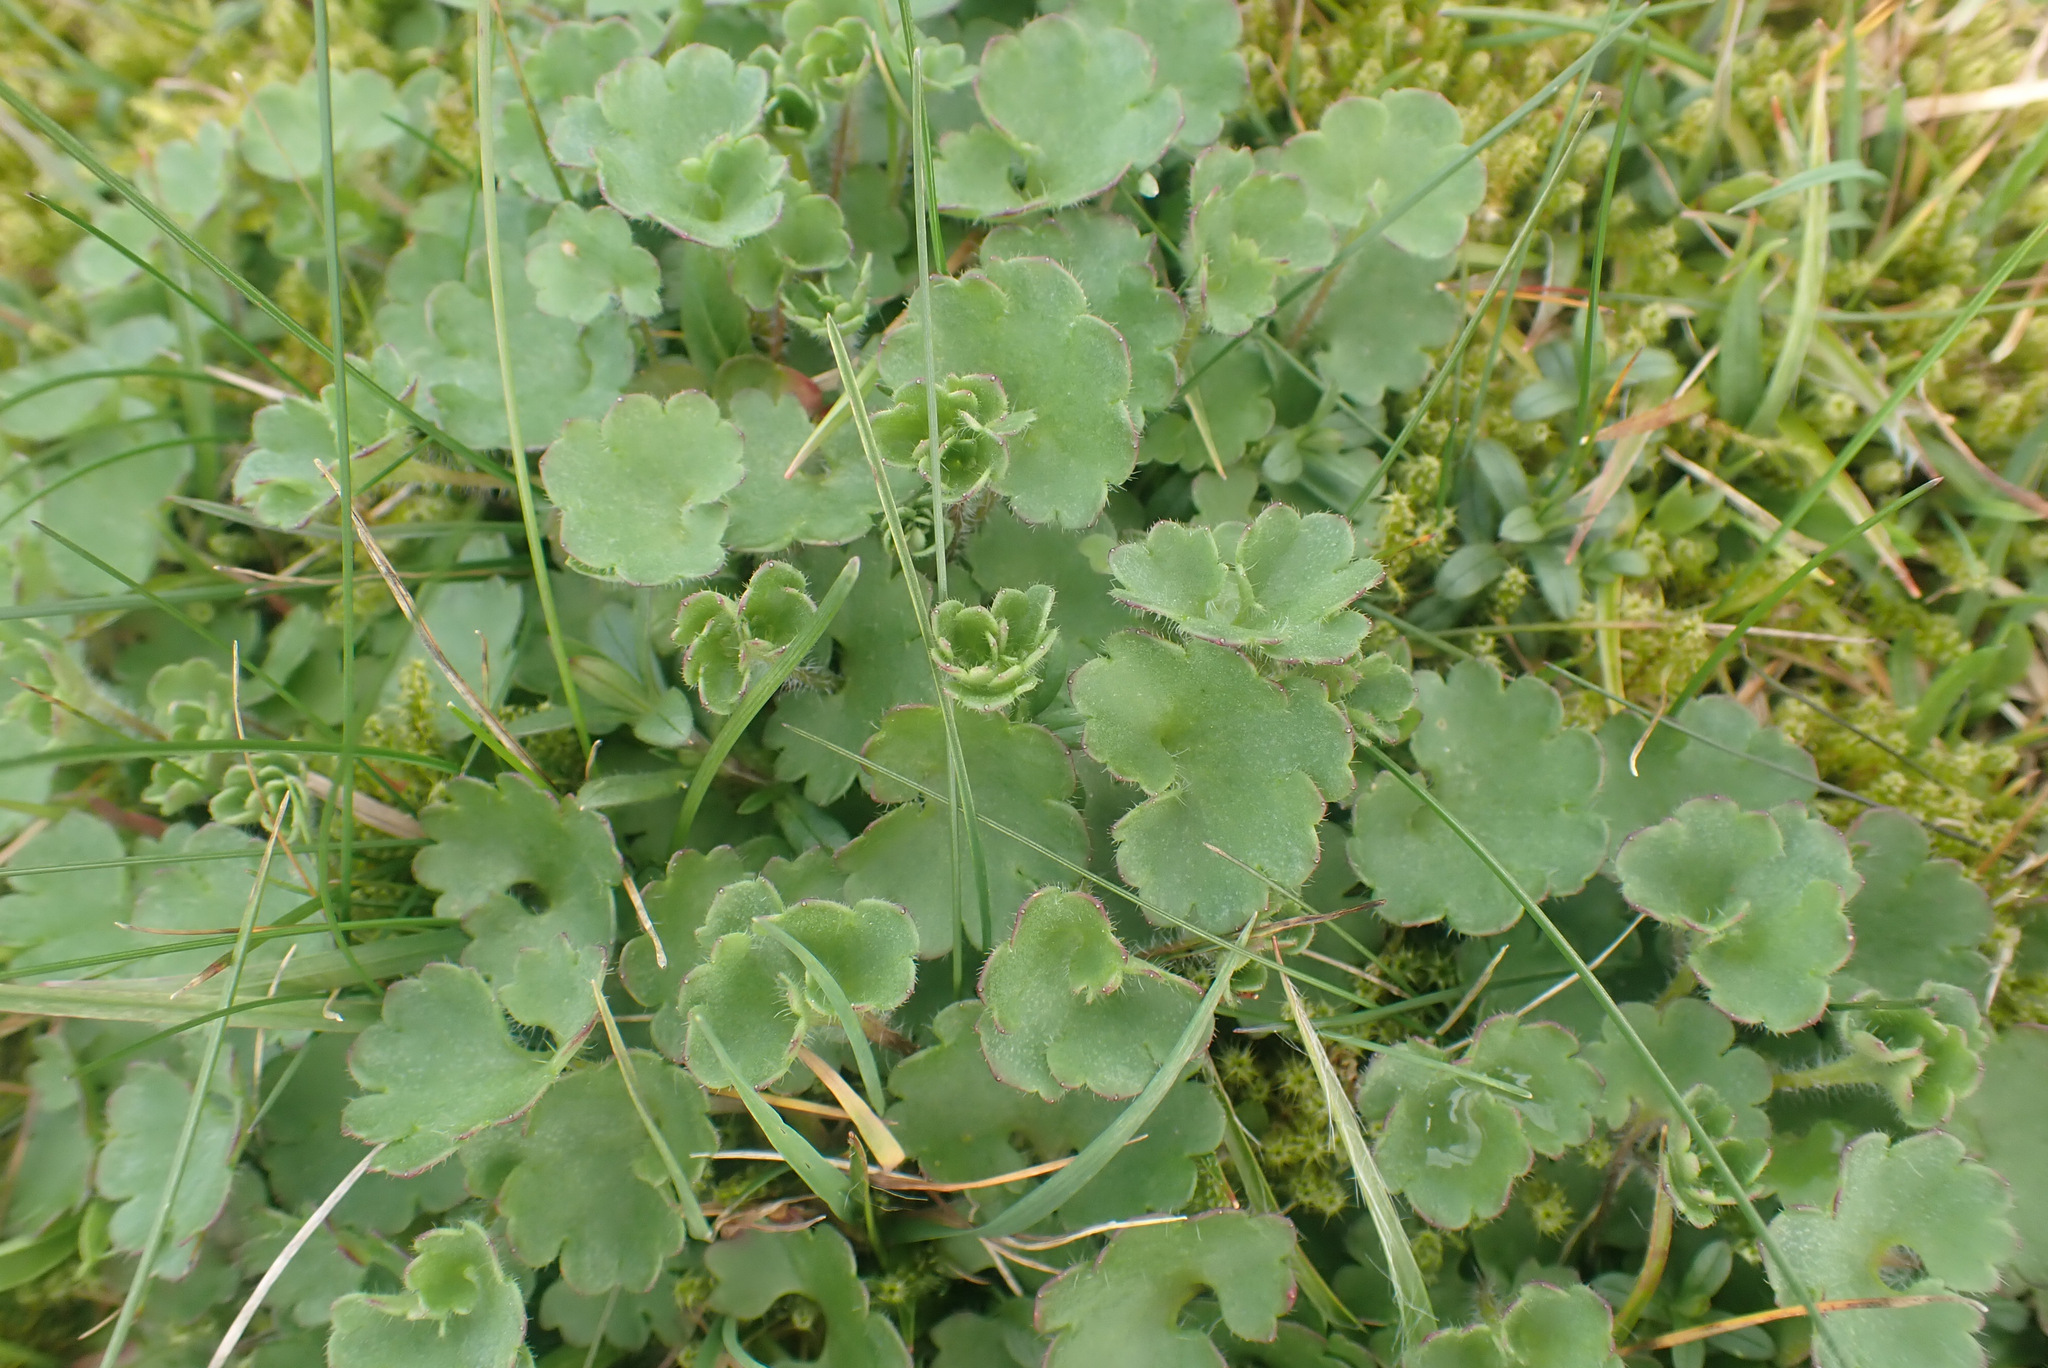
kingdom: Plantae
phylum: Tracheophyta
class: Magnoliopsida
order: Saxifragales
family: Saxifragaceae
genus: Saxifraga
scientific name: Saxifraga granulata
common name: Meadow saxifrage
